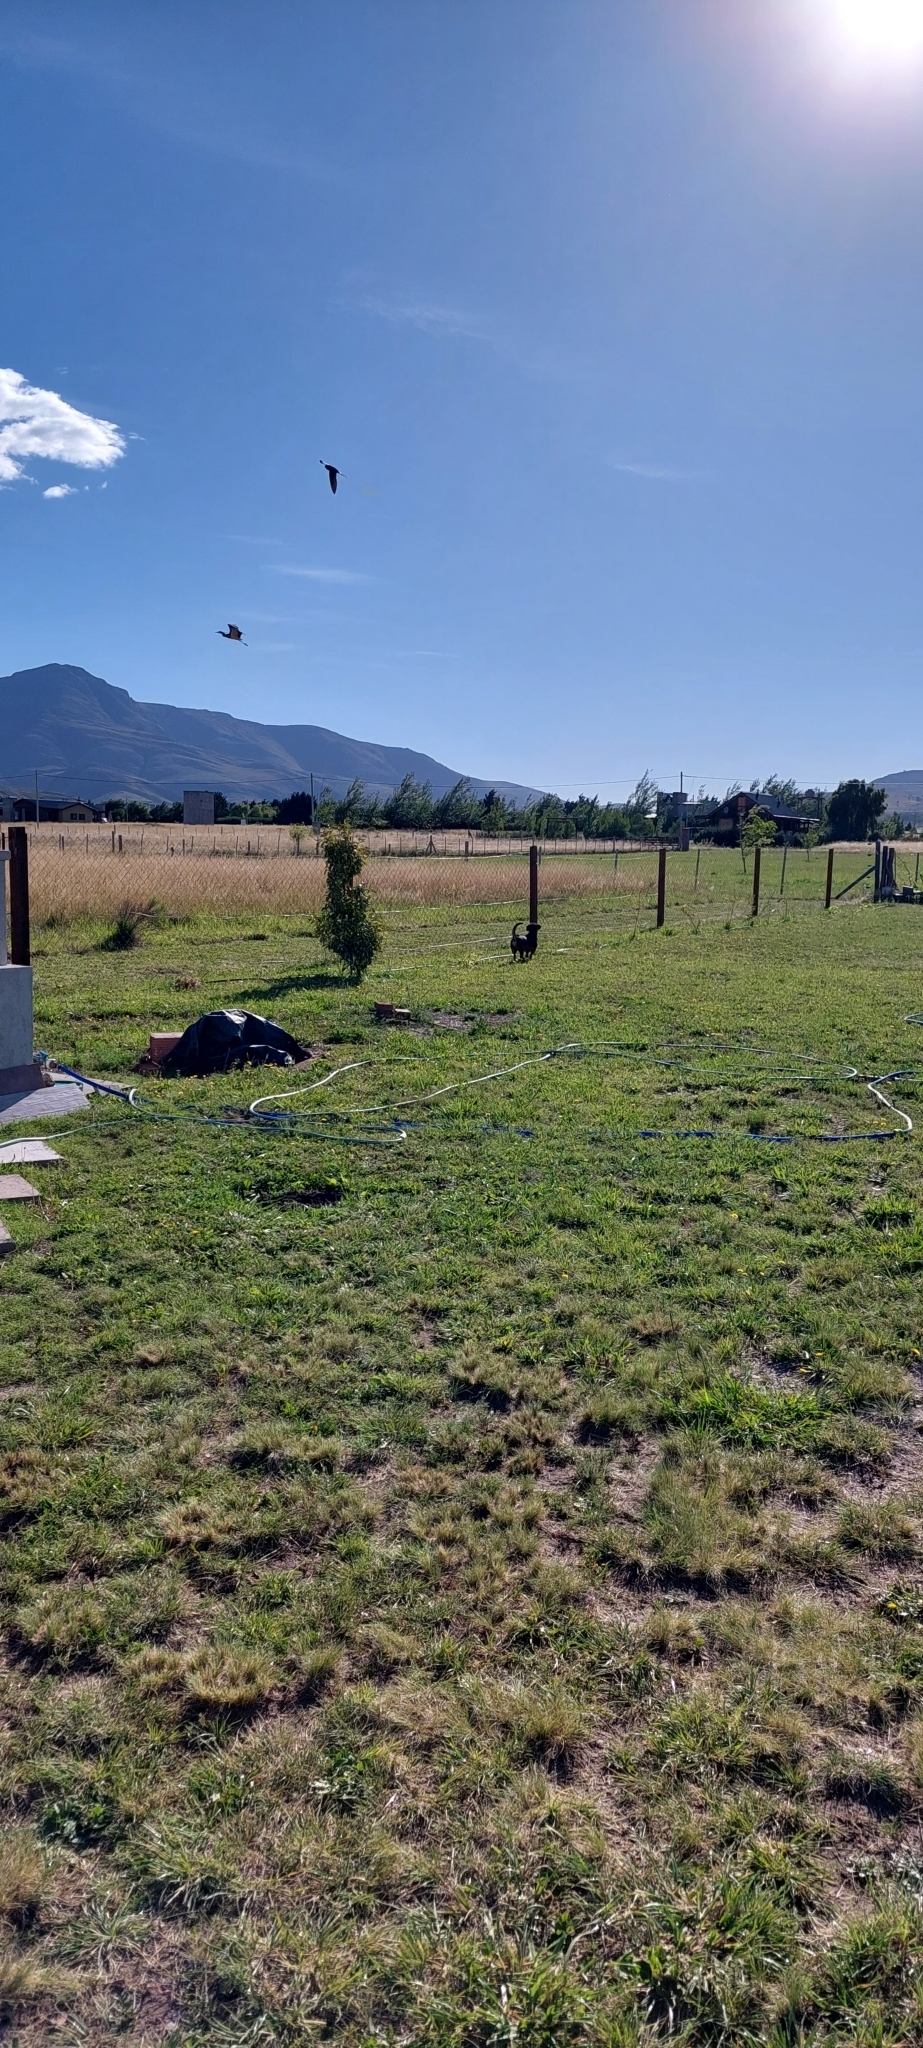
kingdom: Animalia
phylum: Chordata
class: Aves
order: Pelecaniformes
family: Ardeidae
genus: Syrigma
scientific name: Syrigma sibilatrix
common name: Whistling heron
